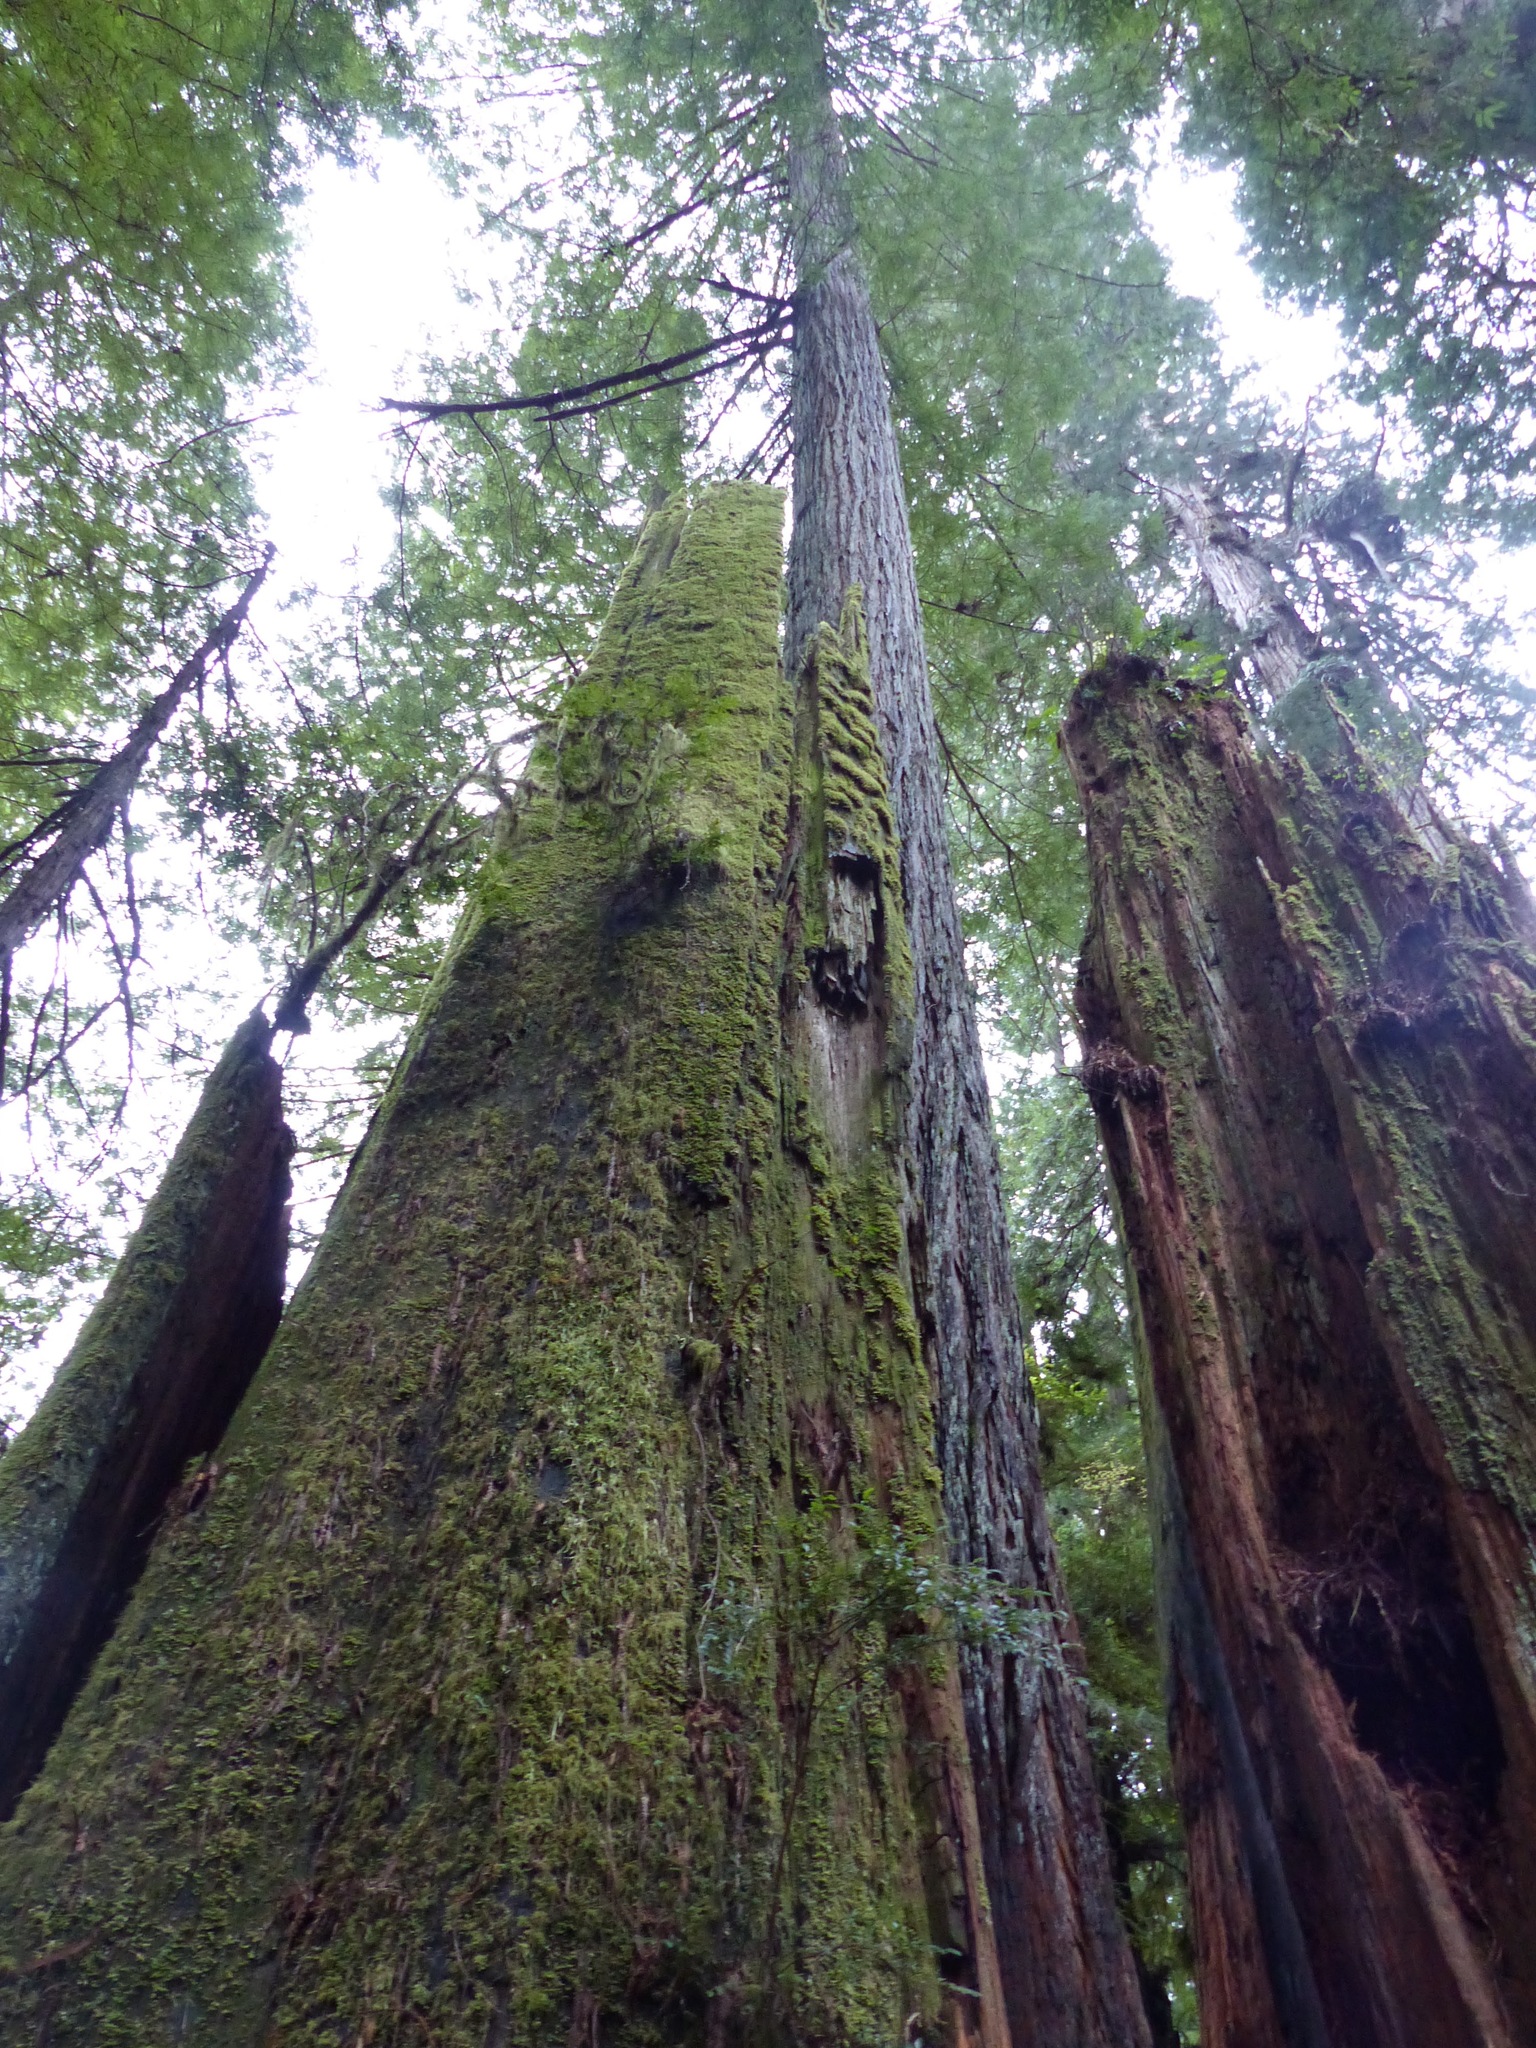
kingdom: Plantae
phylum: Tracheophyta
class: Pinopsida
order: Pinales
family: Cupressaceae
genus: Sequoia
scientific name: Sequoia sempervirens
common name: Coast redwood
